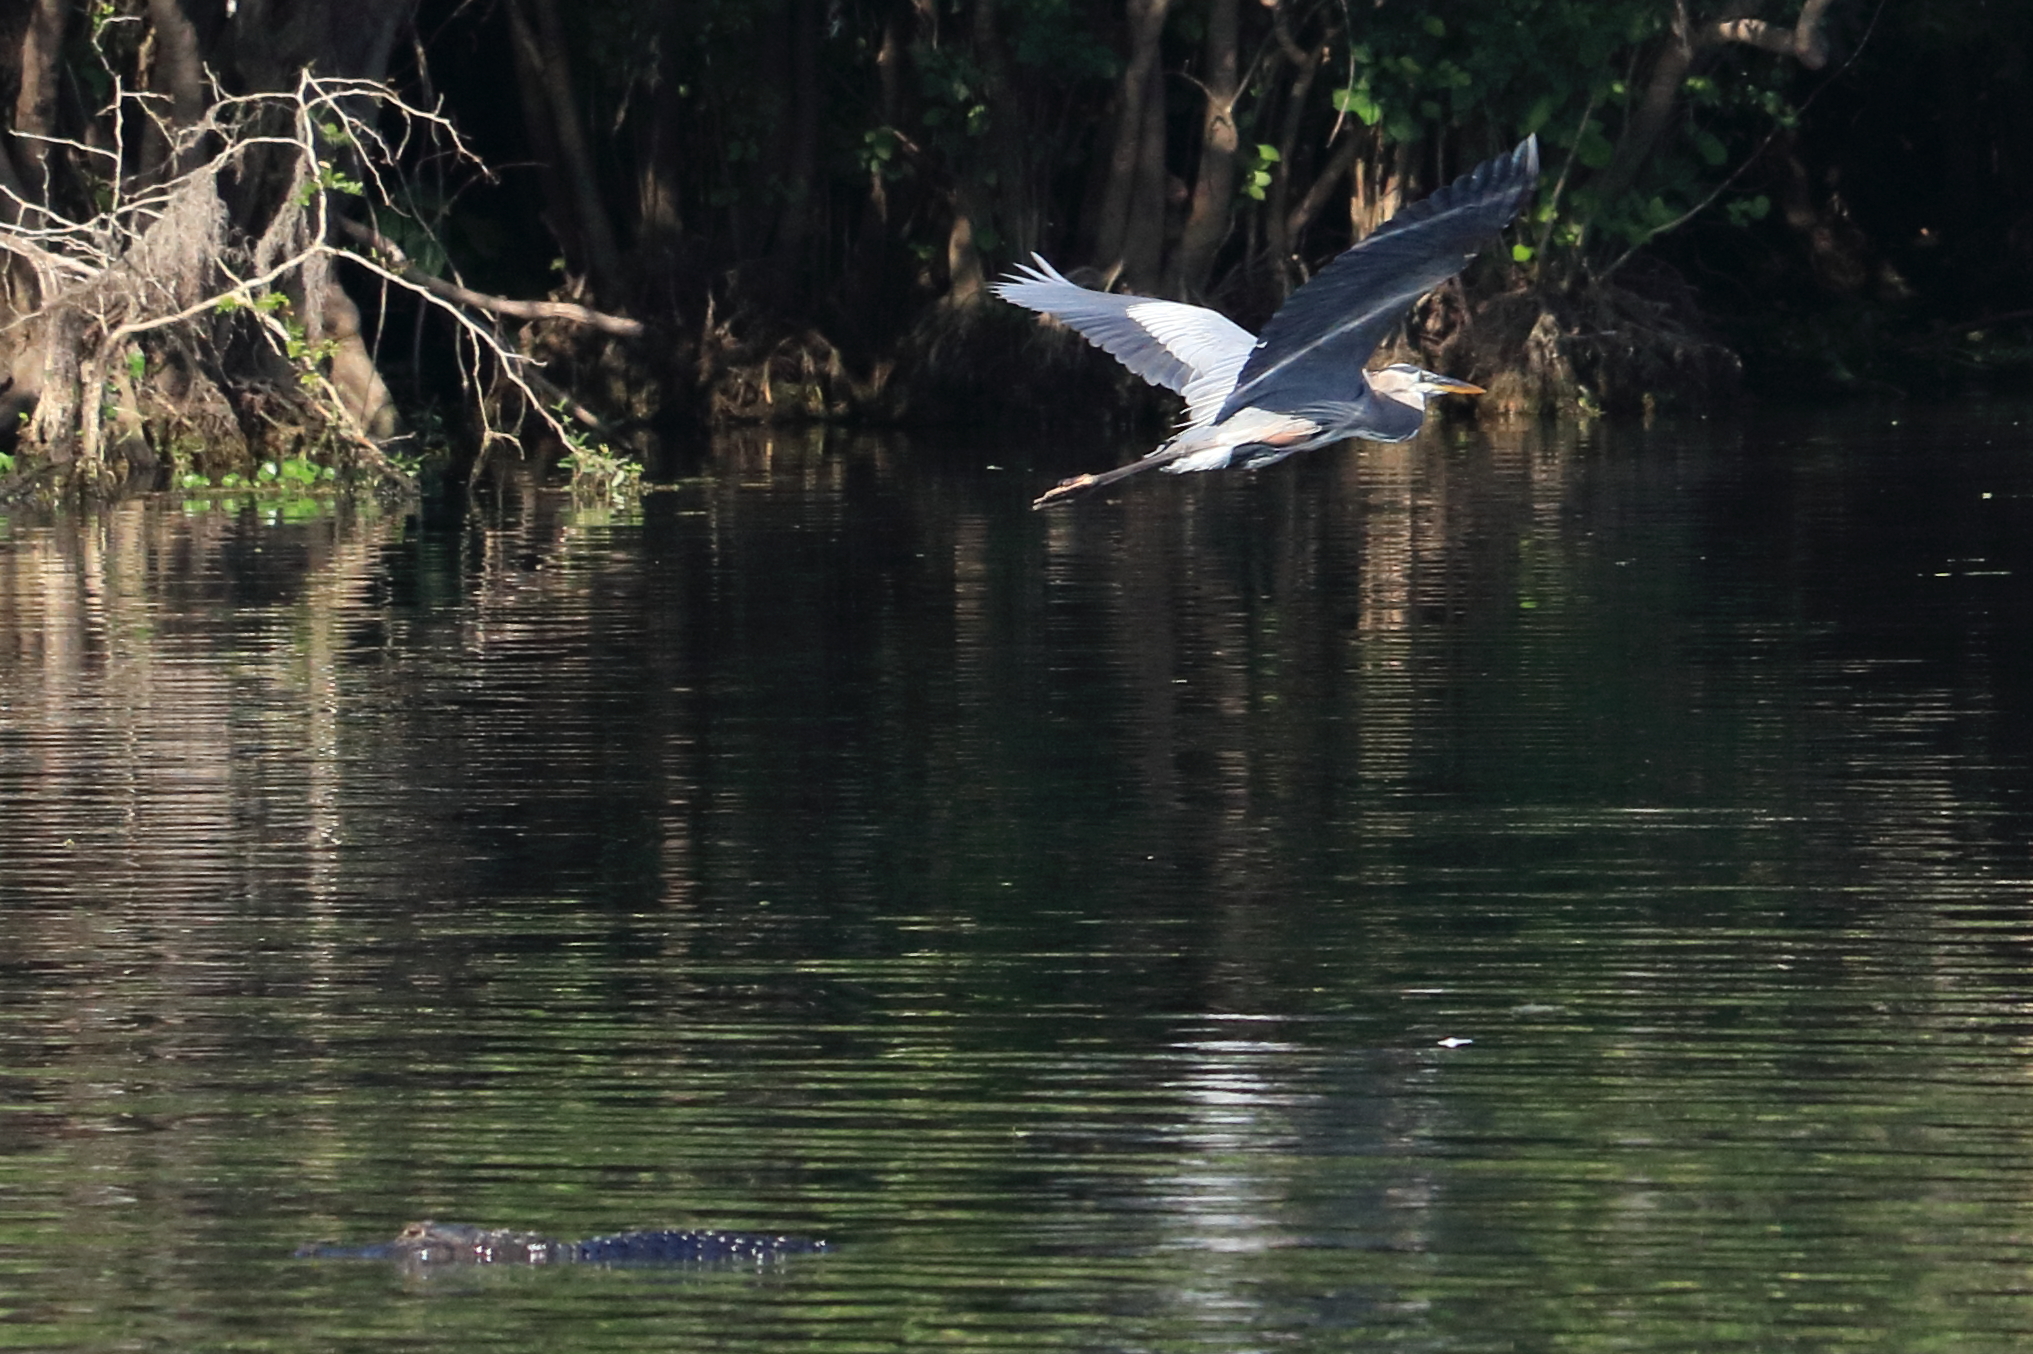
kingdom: Animalia
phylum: Chordata
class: Aves
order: Pelecaniformes
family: Ardeidae
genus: Ardea
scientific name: Ardea herodias
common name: Great blue heron
